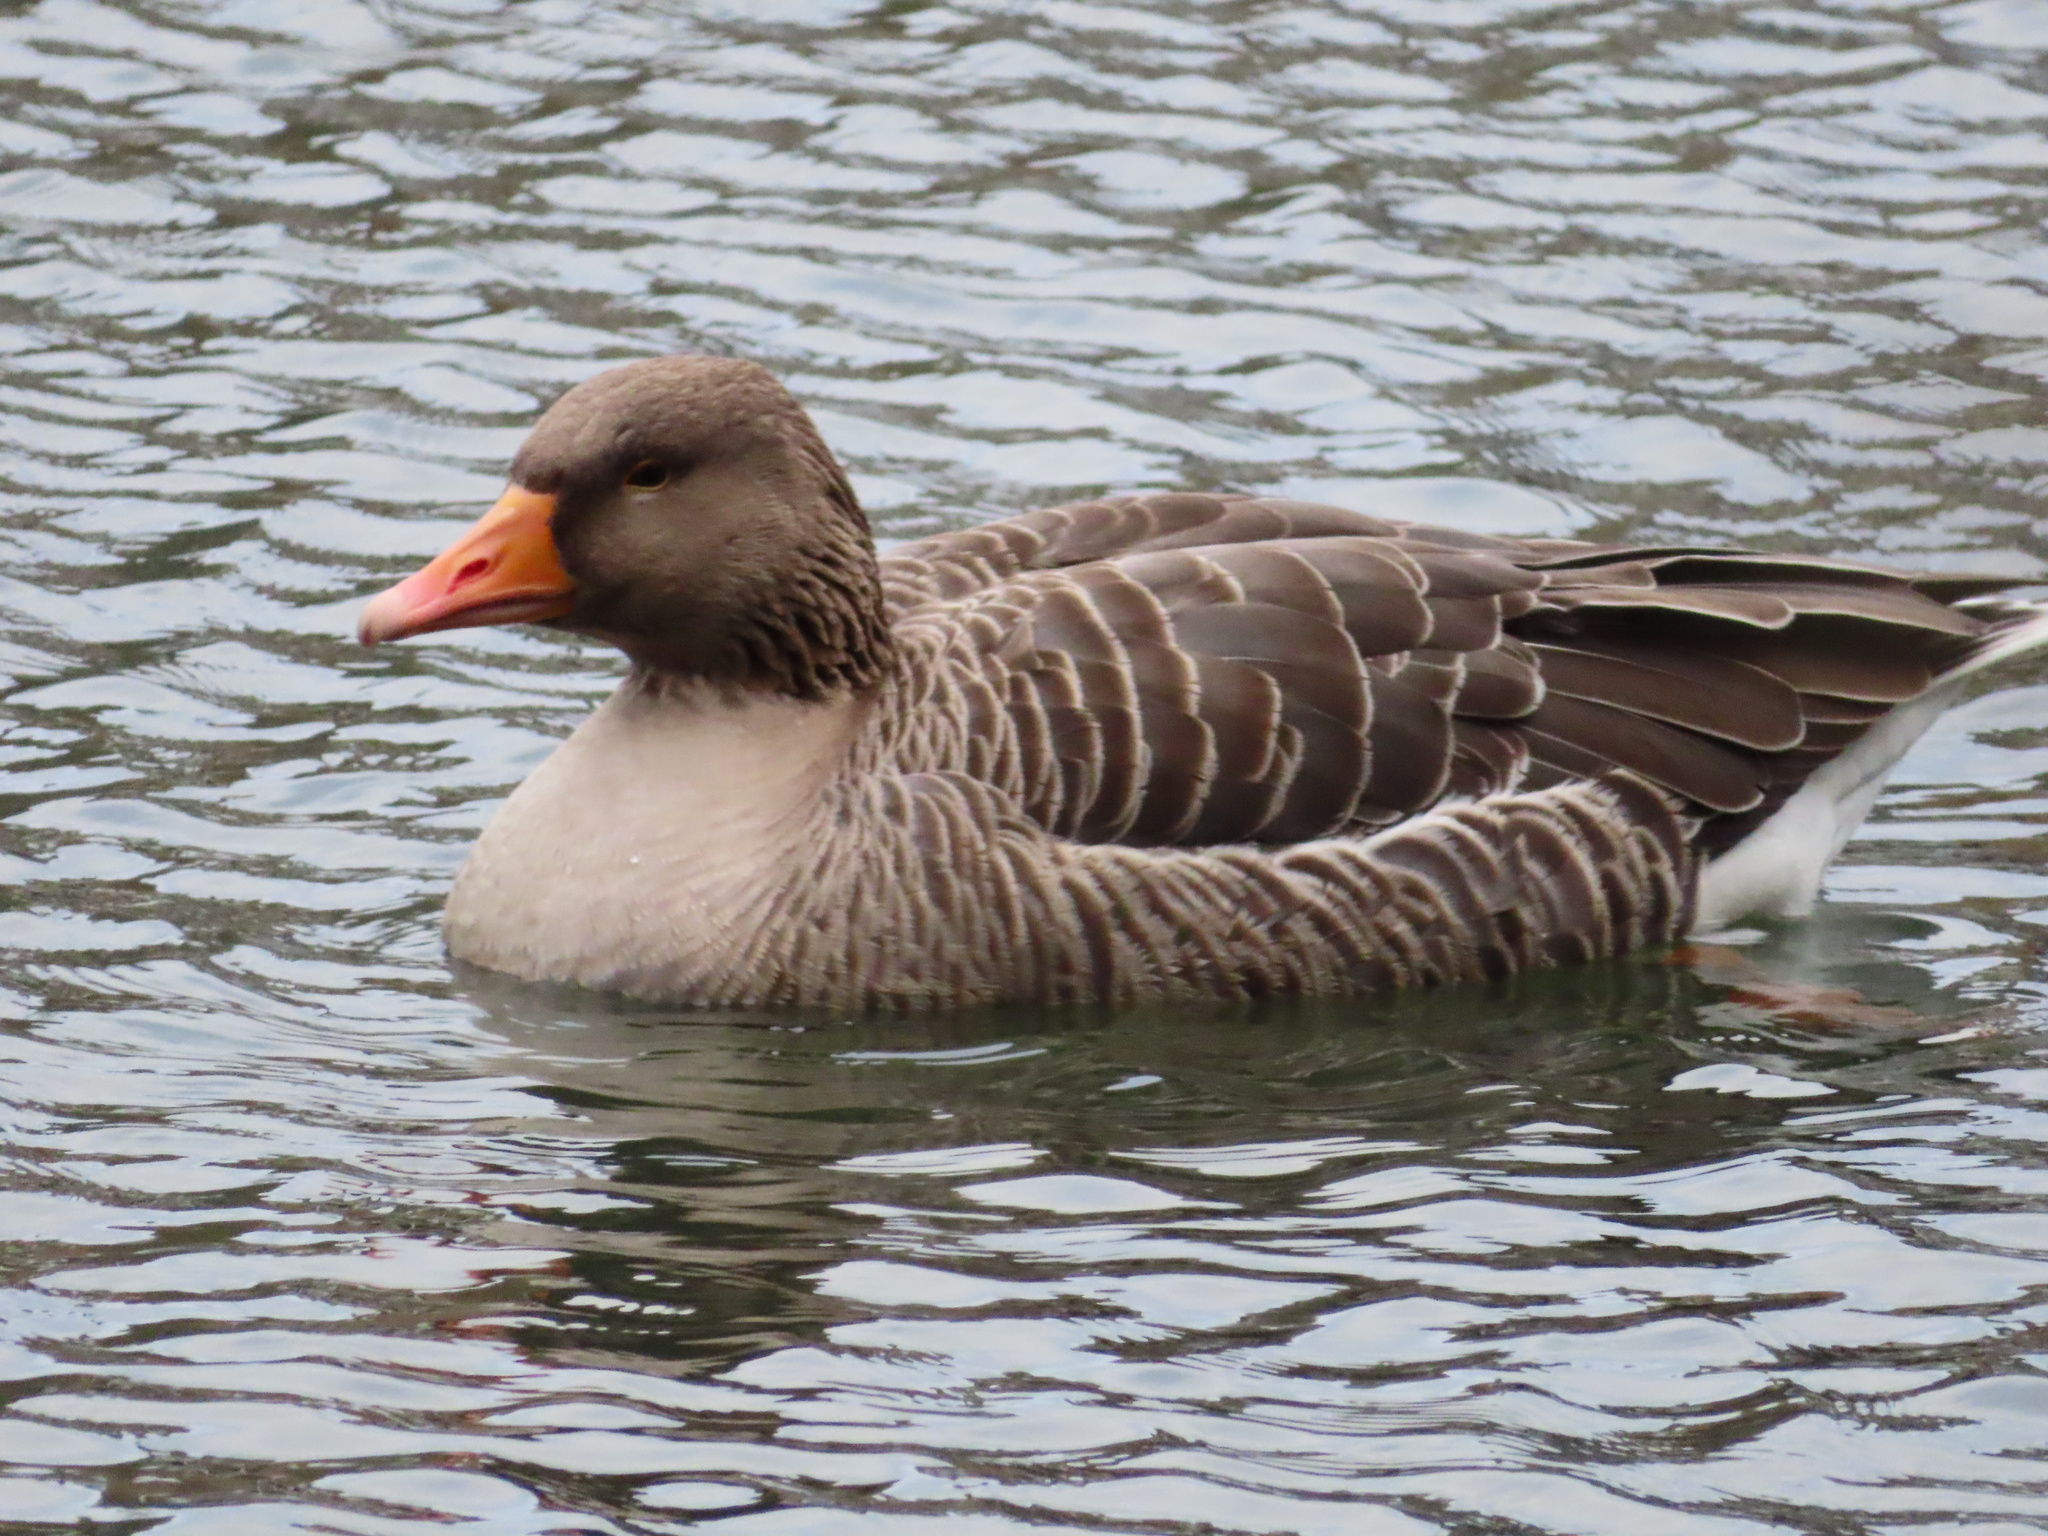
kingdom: Animalia
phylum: Chordata
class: Aves
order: Anseriformes
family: Anatidae
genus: Anser
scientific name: Anser anser
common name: Greylag goose
